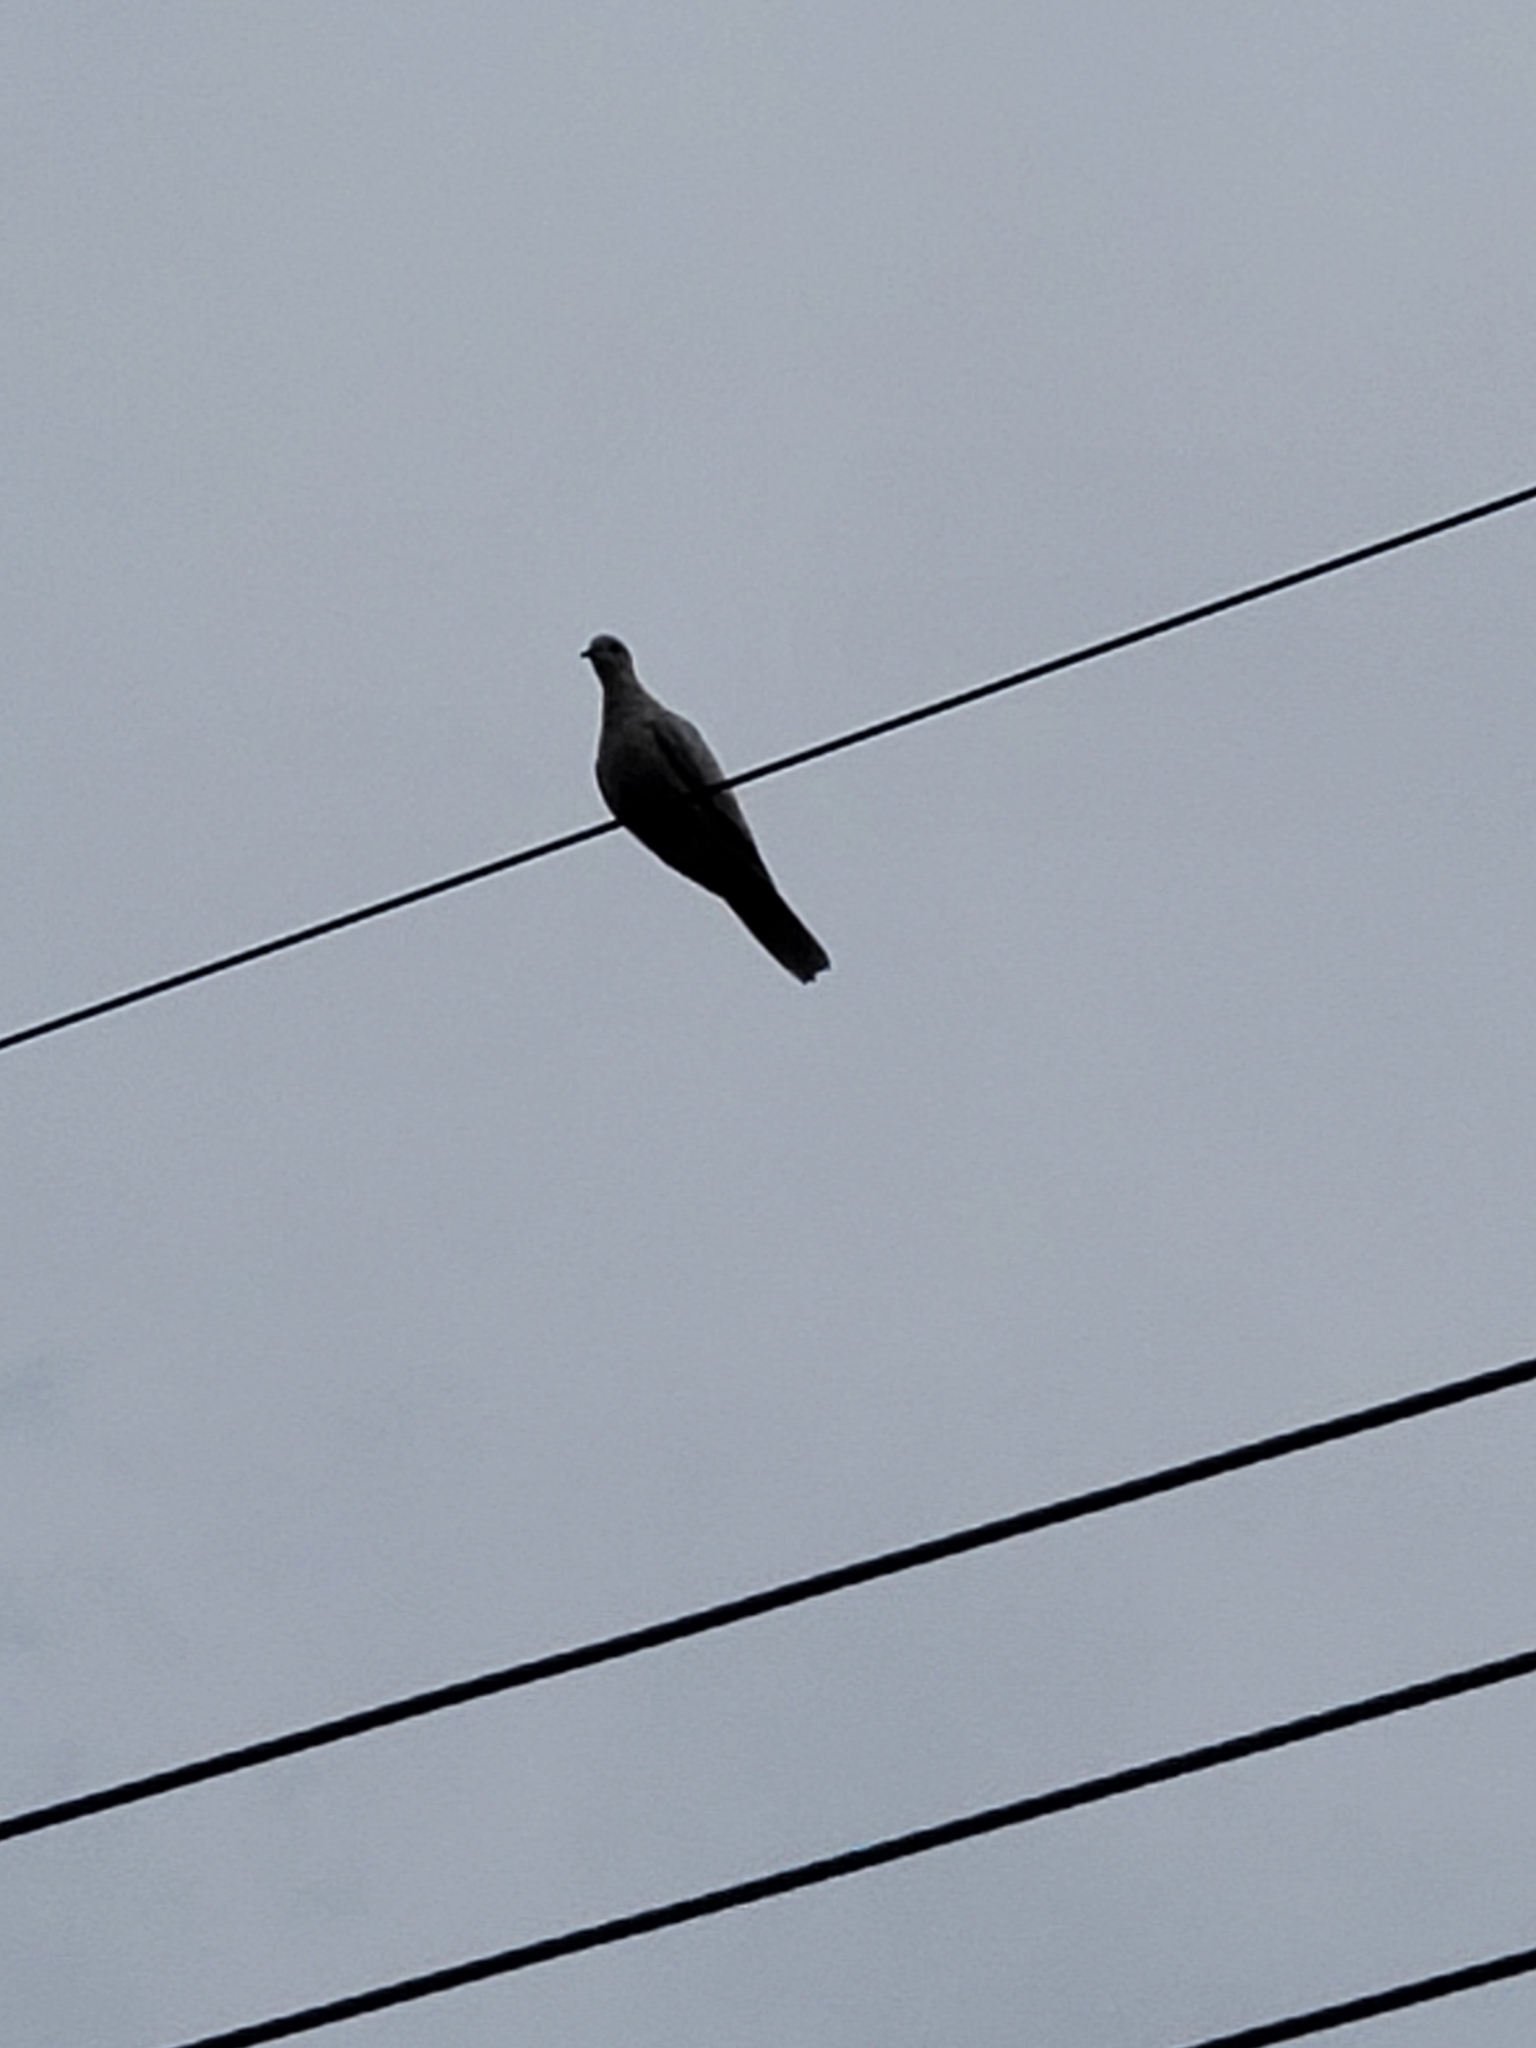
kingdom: Animalia
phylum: Chordata
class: Aves
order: Columbiformes
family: Columbidae
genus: Streptopelia
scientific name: Streptopelia decaocto
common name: Eurasian collared dove
